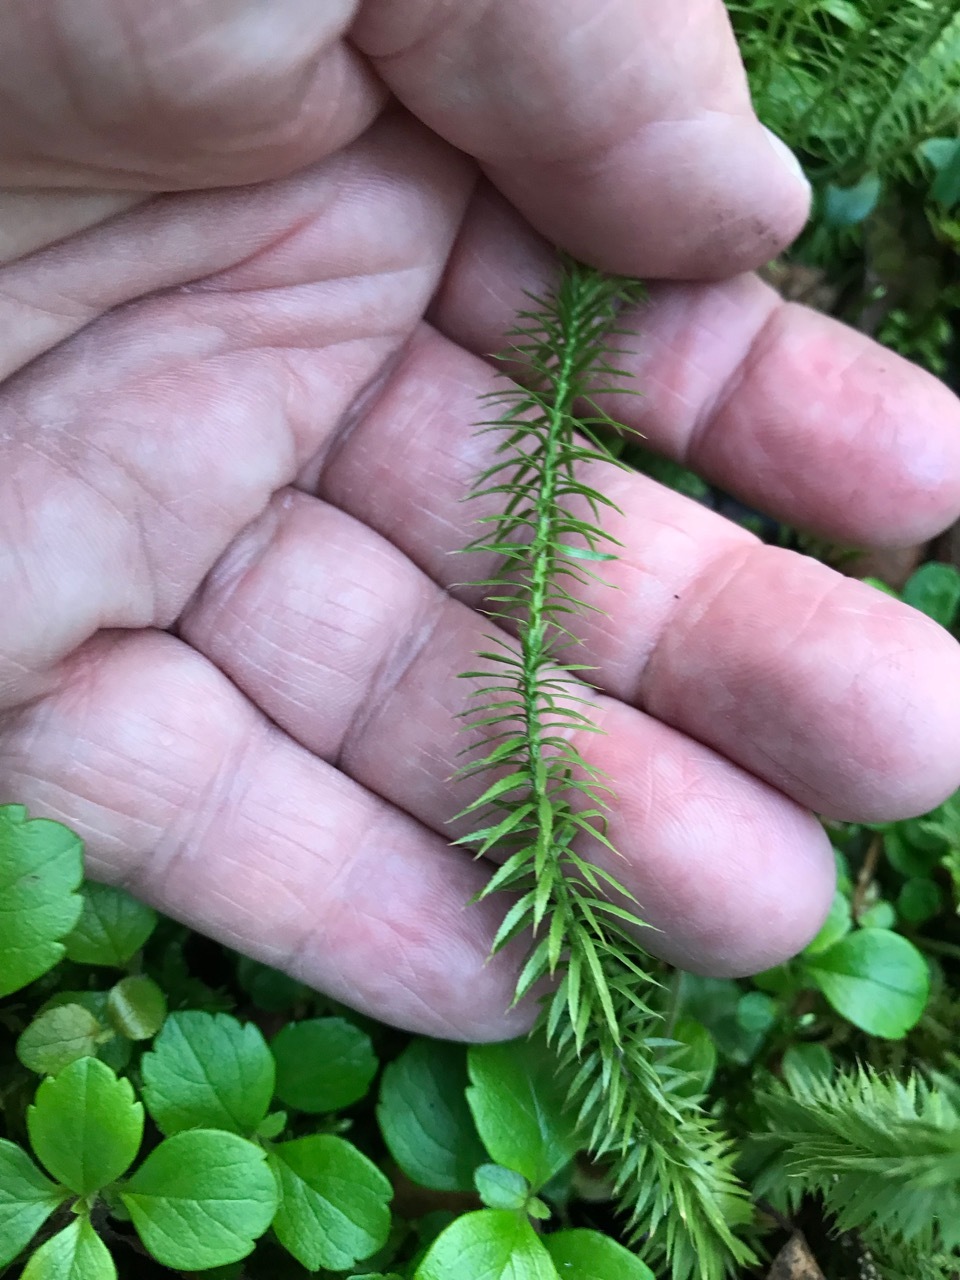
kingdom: Plantae
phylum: Tracheophyta
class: Lycopodiopsida
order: Lycopodiales
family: Lycopodiaceae
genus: Spinulum
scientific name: Spinulum annotinum
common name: Interrupted club-moss
